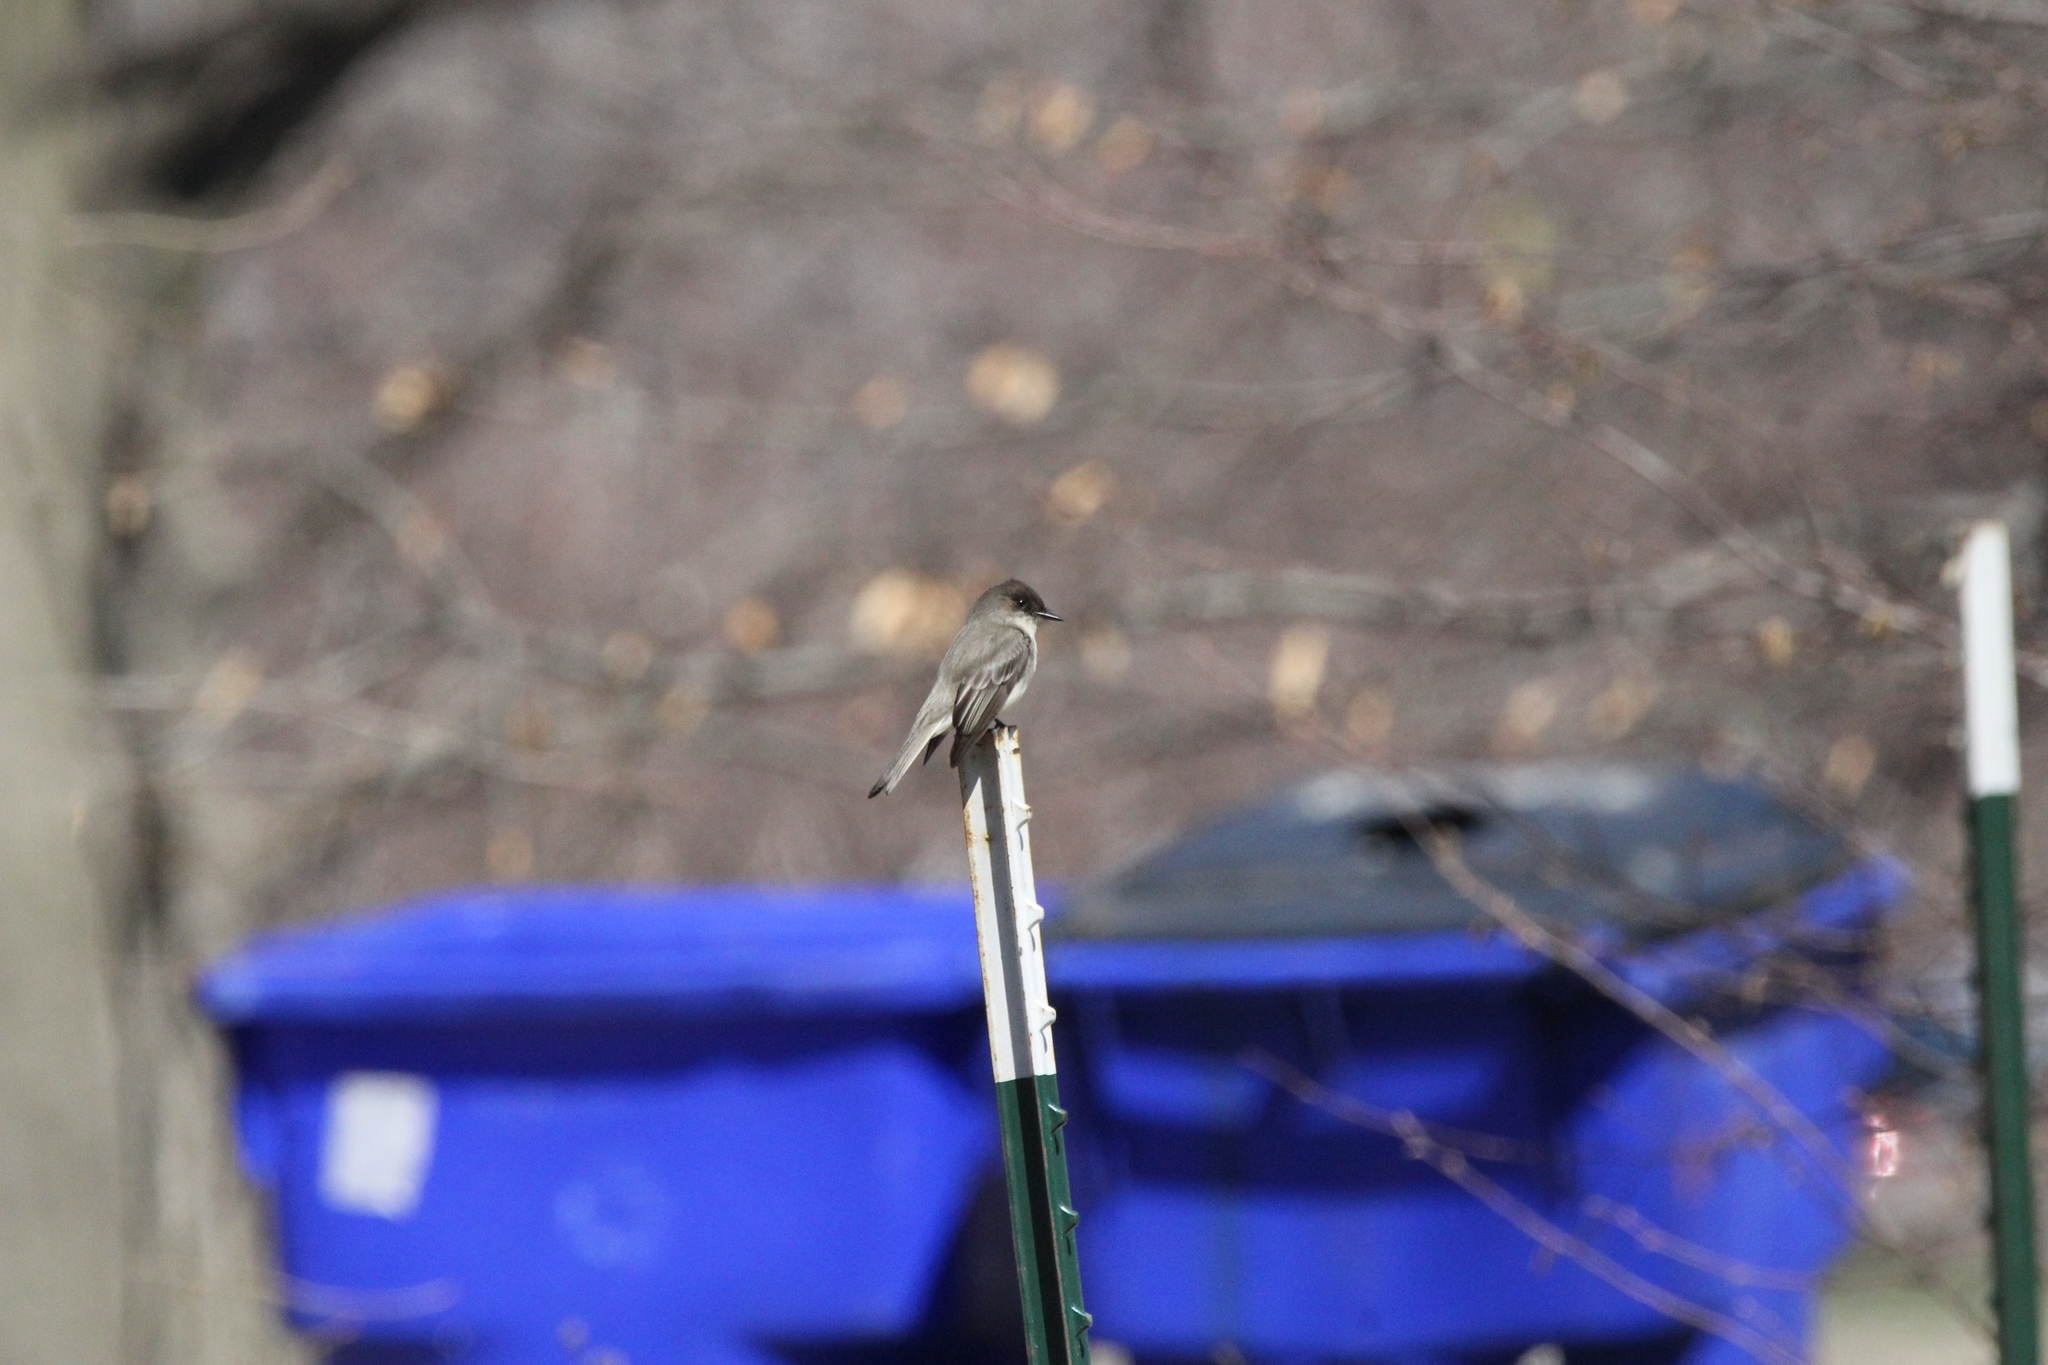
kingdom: Animalia
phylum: Chordata
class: Aves
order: Passeriformes
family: Tyrannidae
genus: Sayornis
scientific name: Sayornis phoebe
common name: Eastern phoebe
